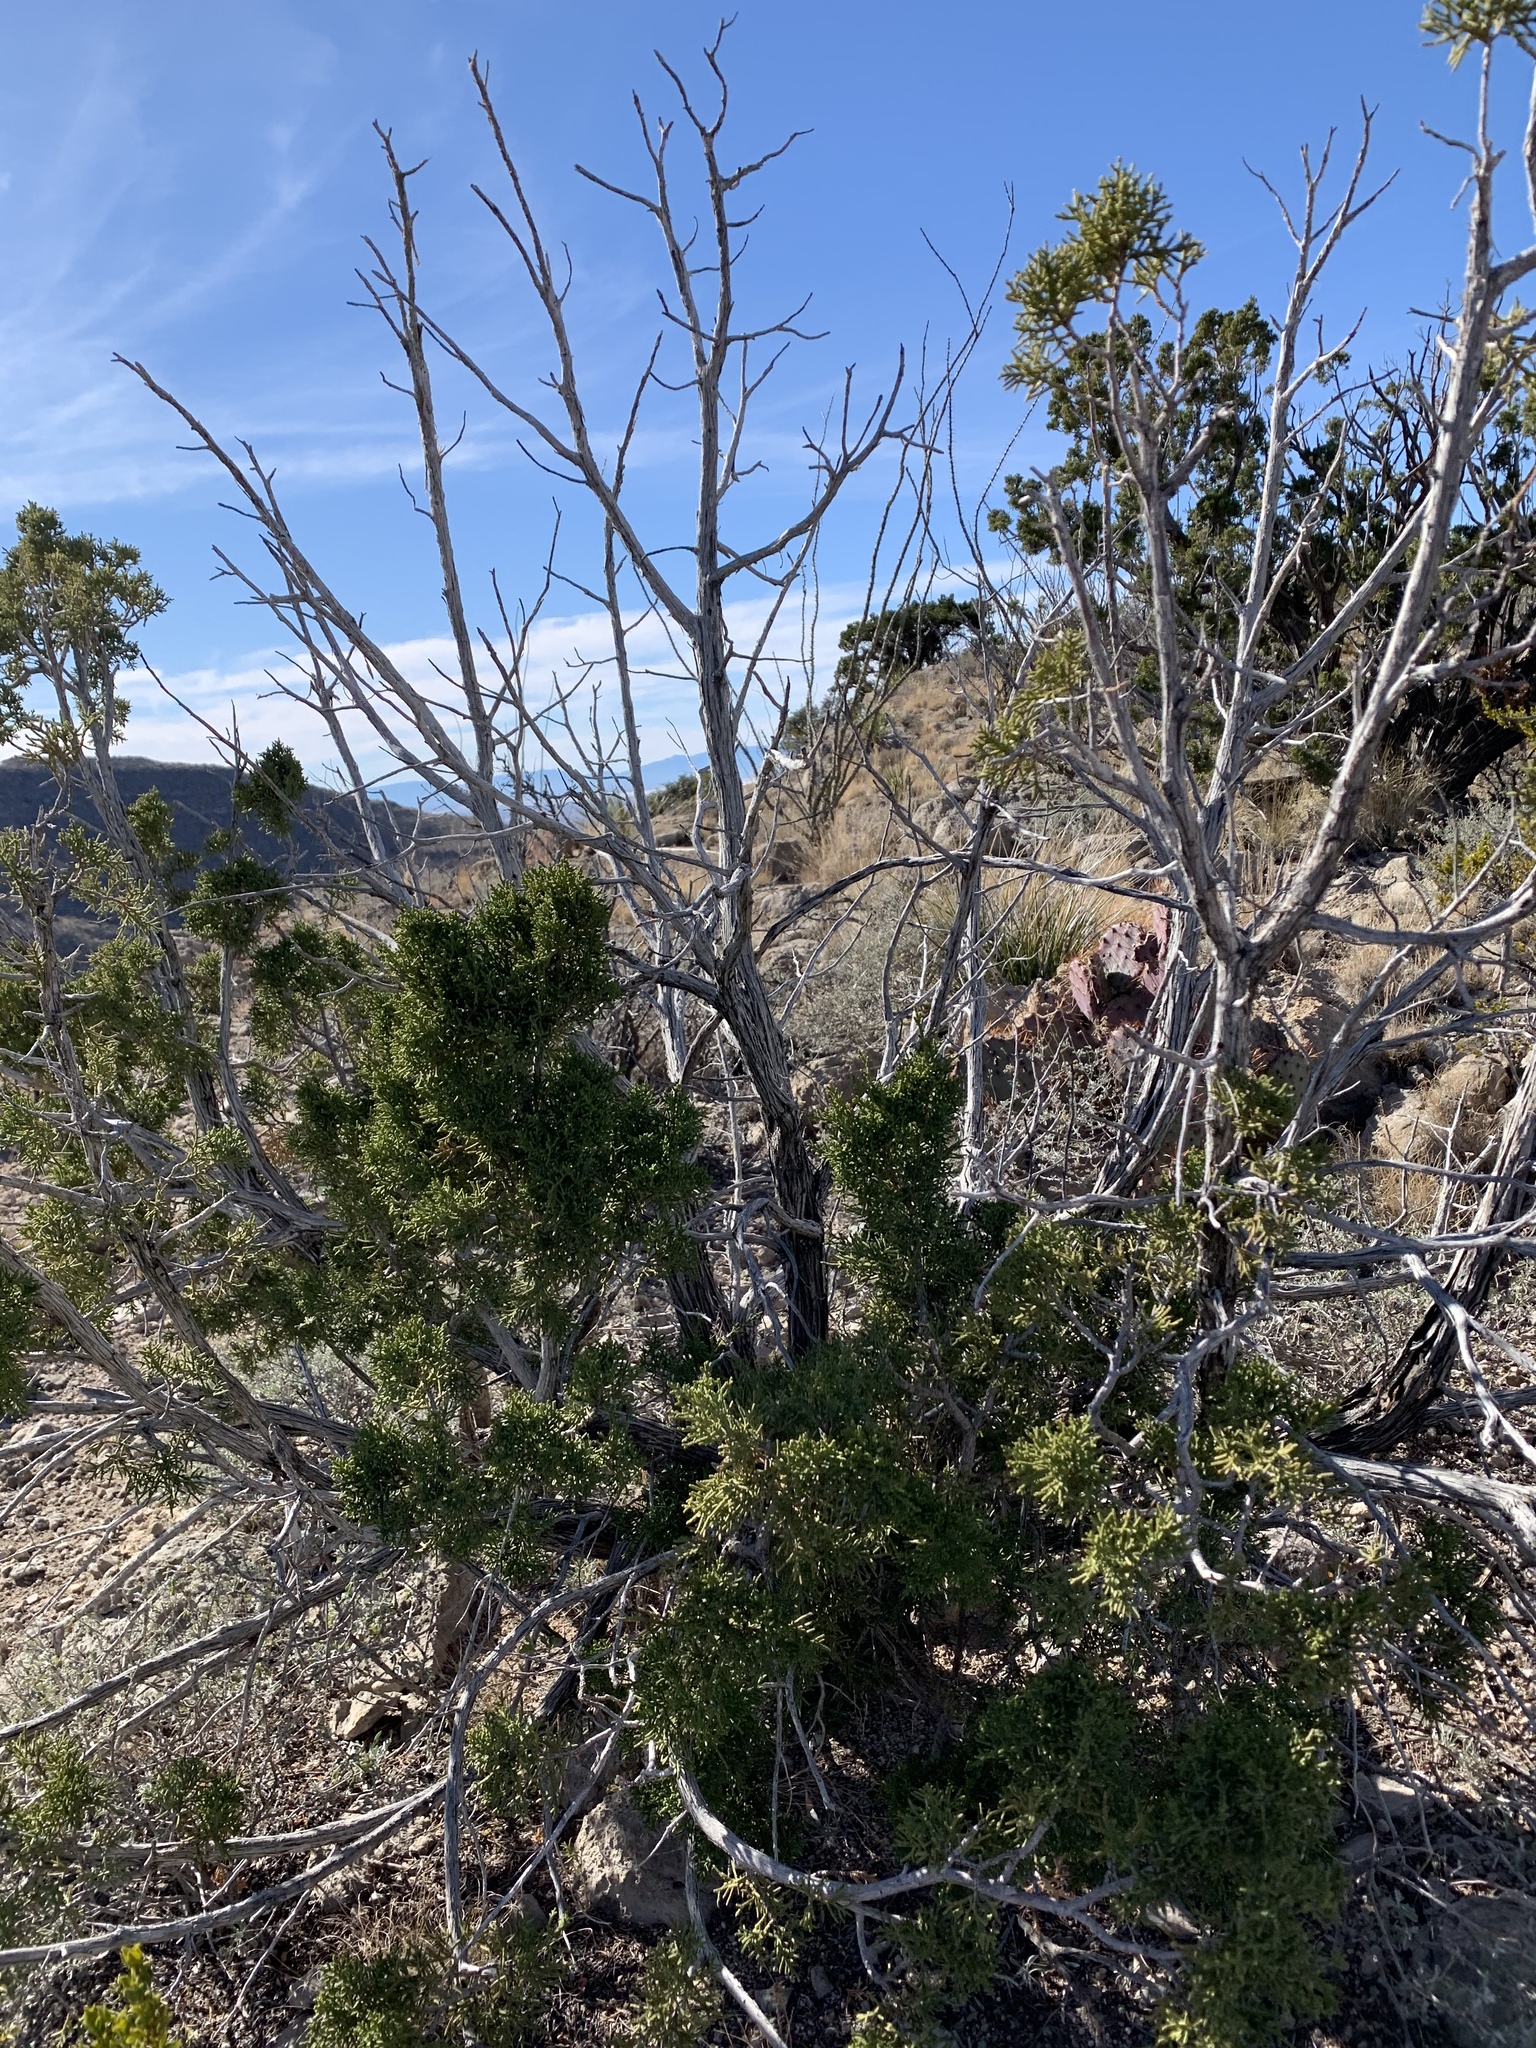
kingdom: Plantae
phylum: Tracheophyta
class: Pinopsida
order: Pinales
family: Cupressaceae
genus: Juniperus
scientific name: Juniperus monosperma
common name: One-seed juniper
